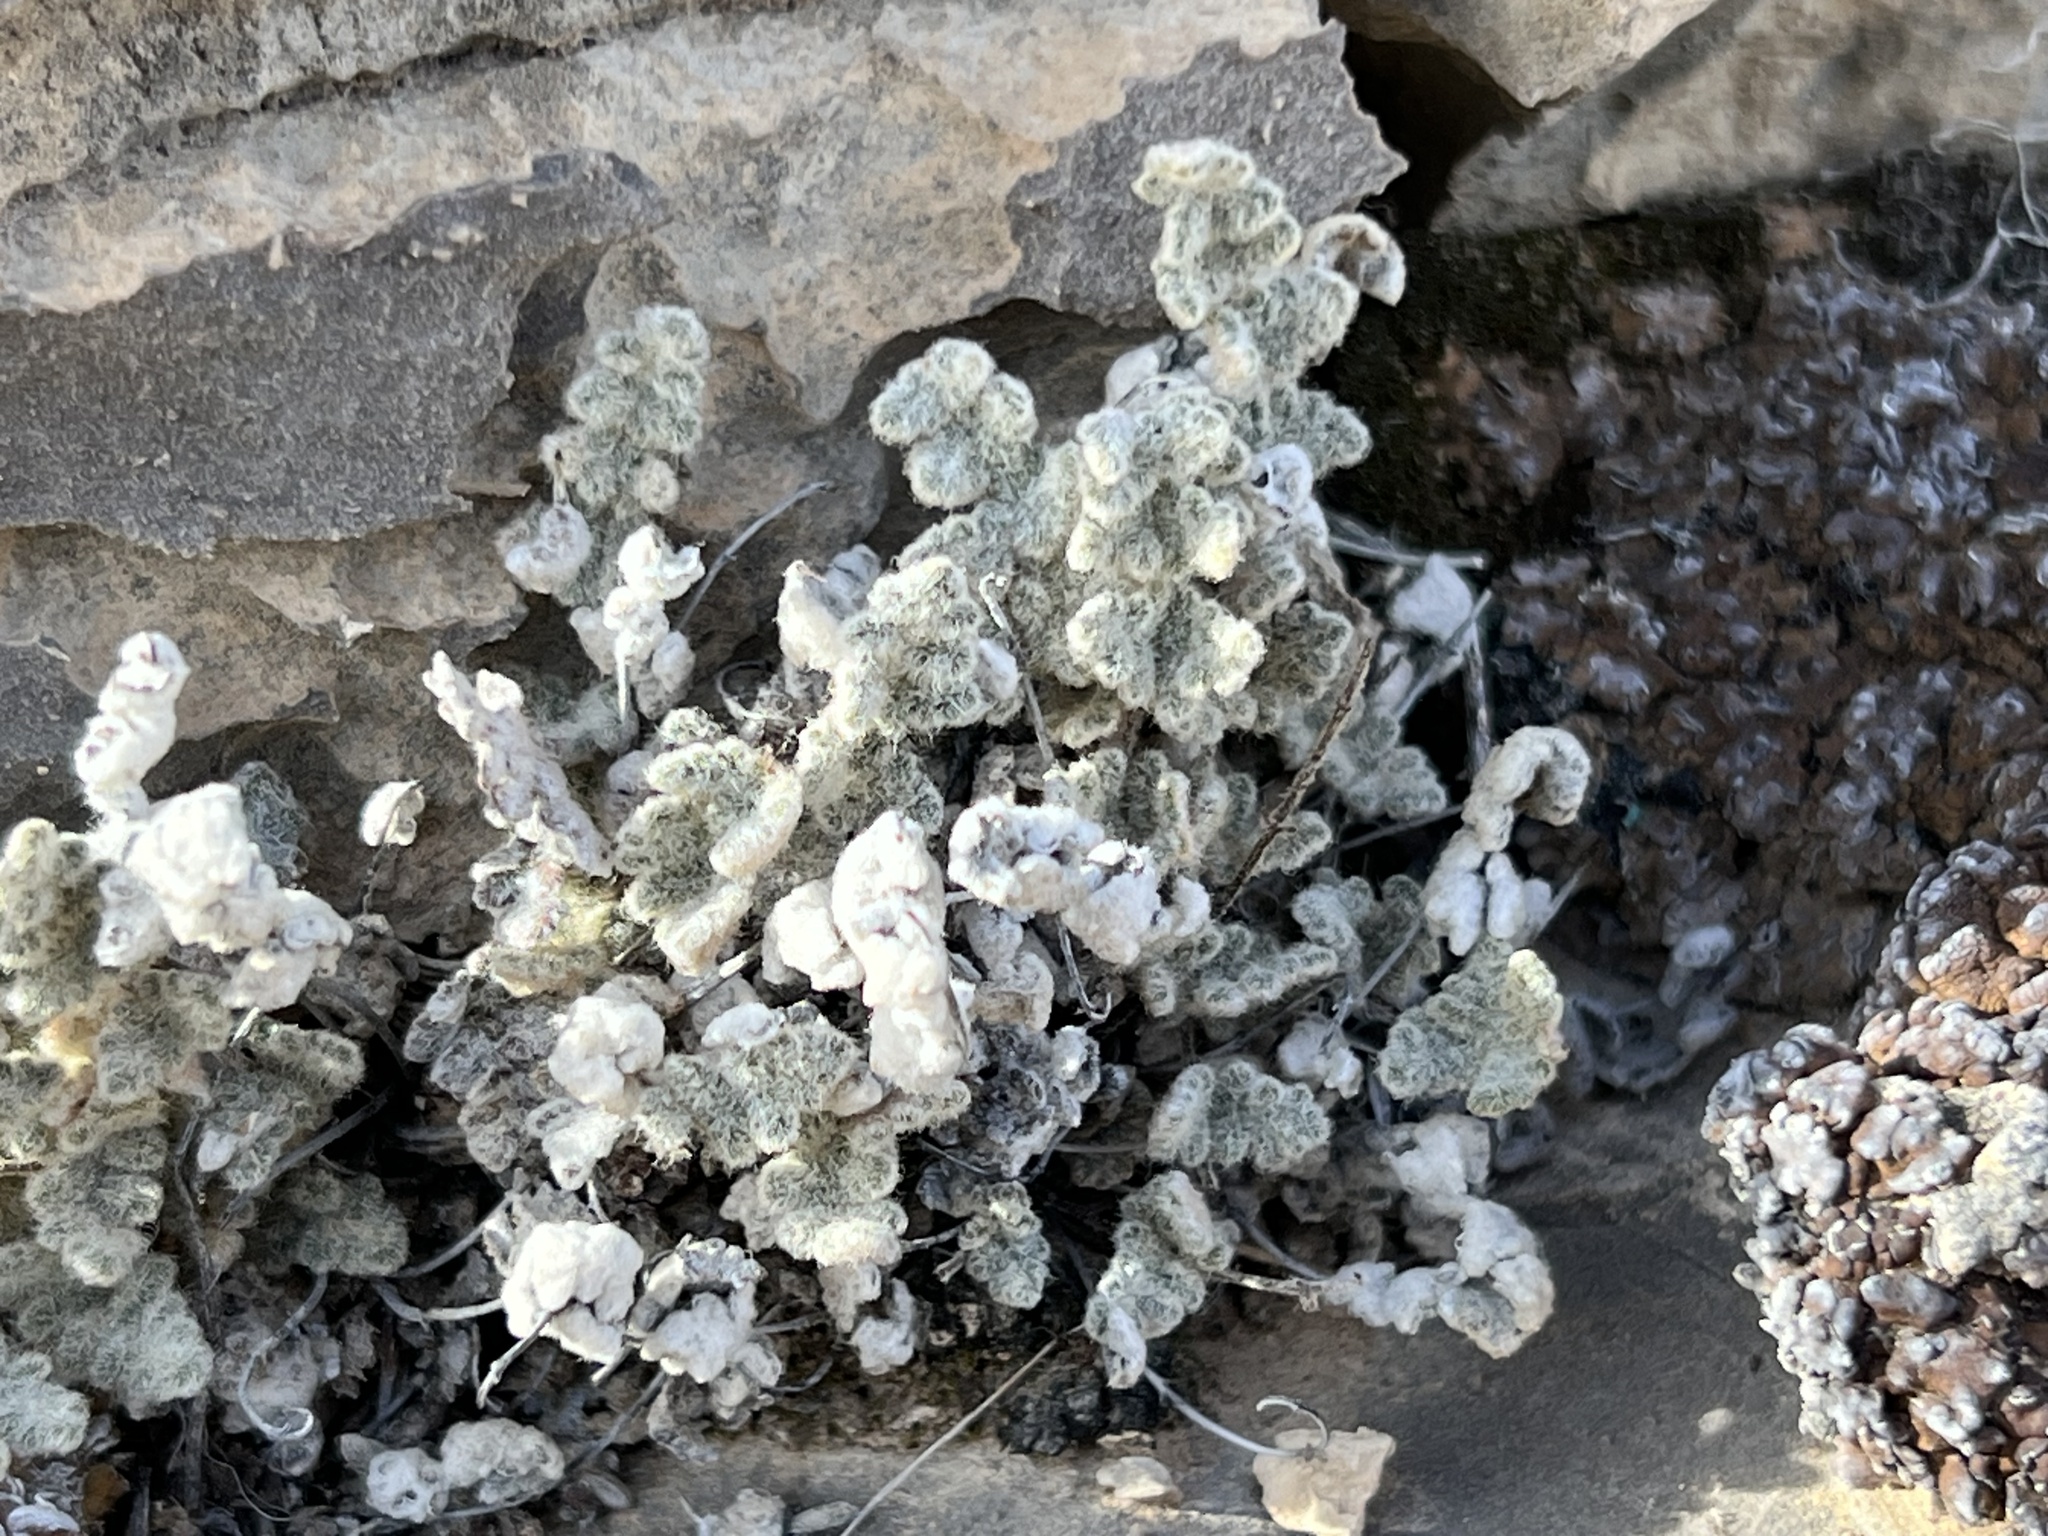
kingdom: Plantae
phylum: Tracheophyta
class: Polypodiopsida
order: Polypodiales
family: Pteridaceae
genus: Myriopteris
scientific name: Myriopteris parryi
